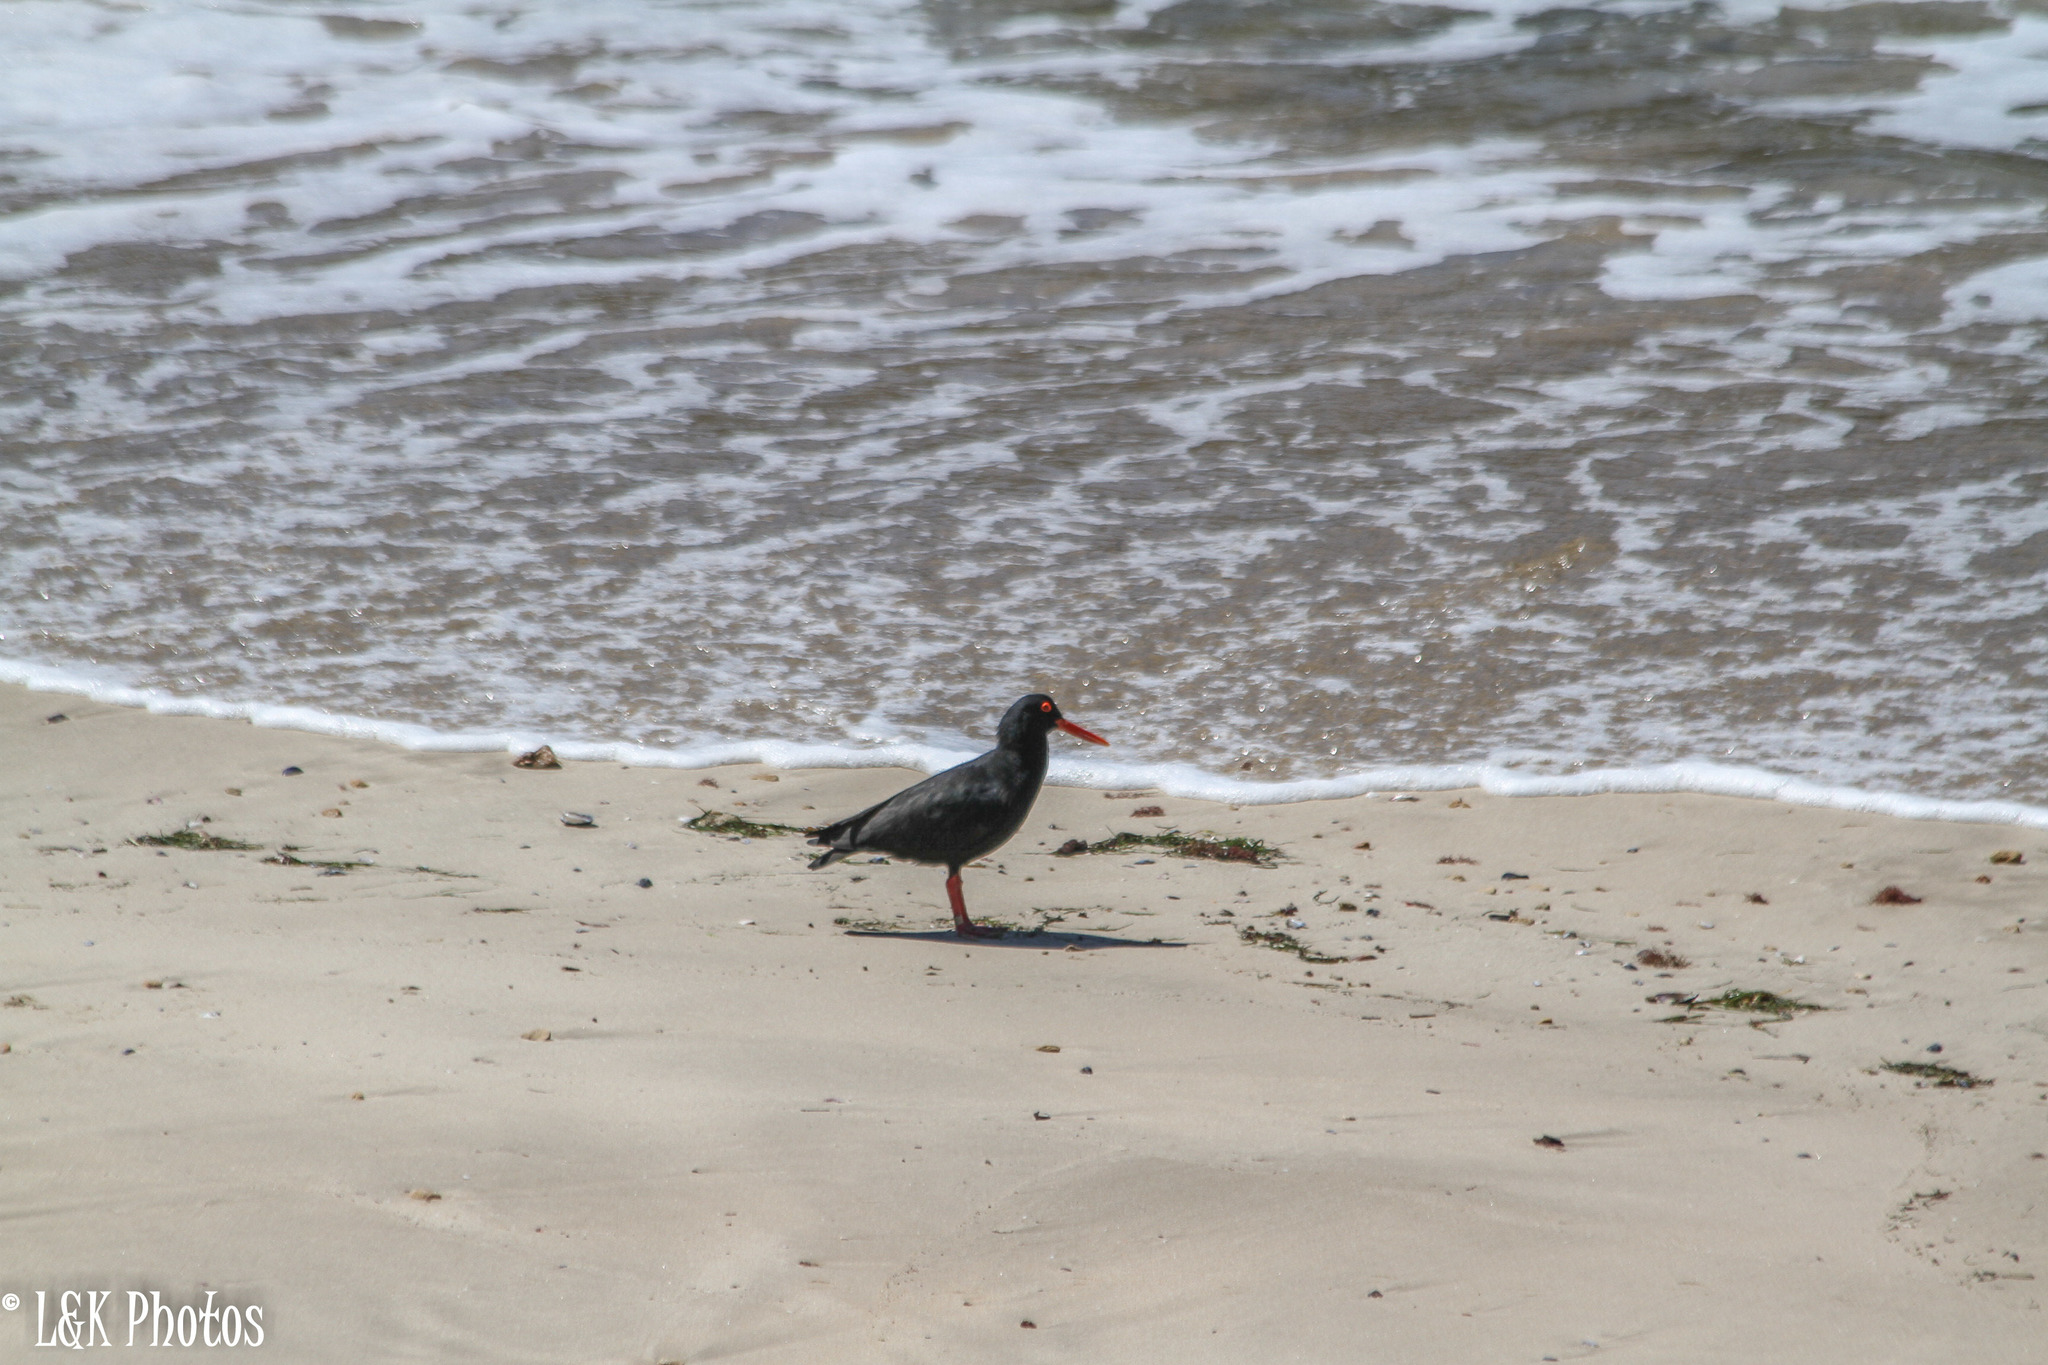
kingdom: Animalia
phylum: Chordata
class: Aves
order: Charadriiformes
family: Haematopodidae
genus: Haematopus
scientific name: Haematopus moquini
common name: African oystercatcher
